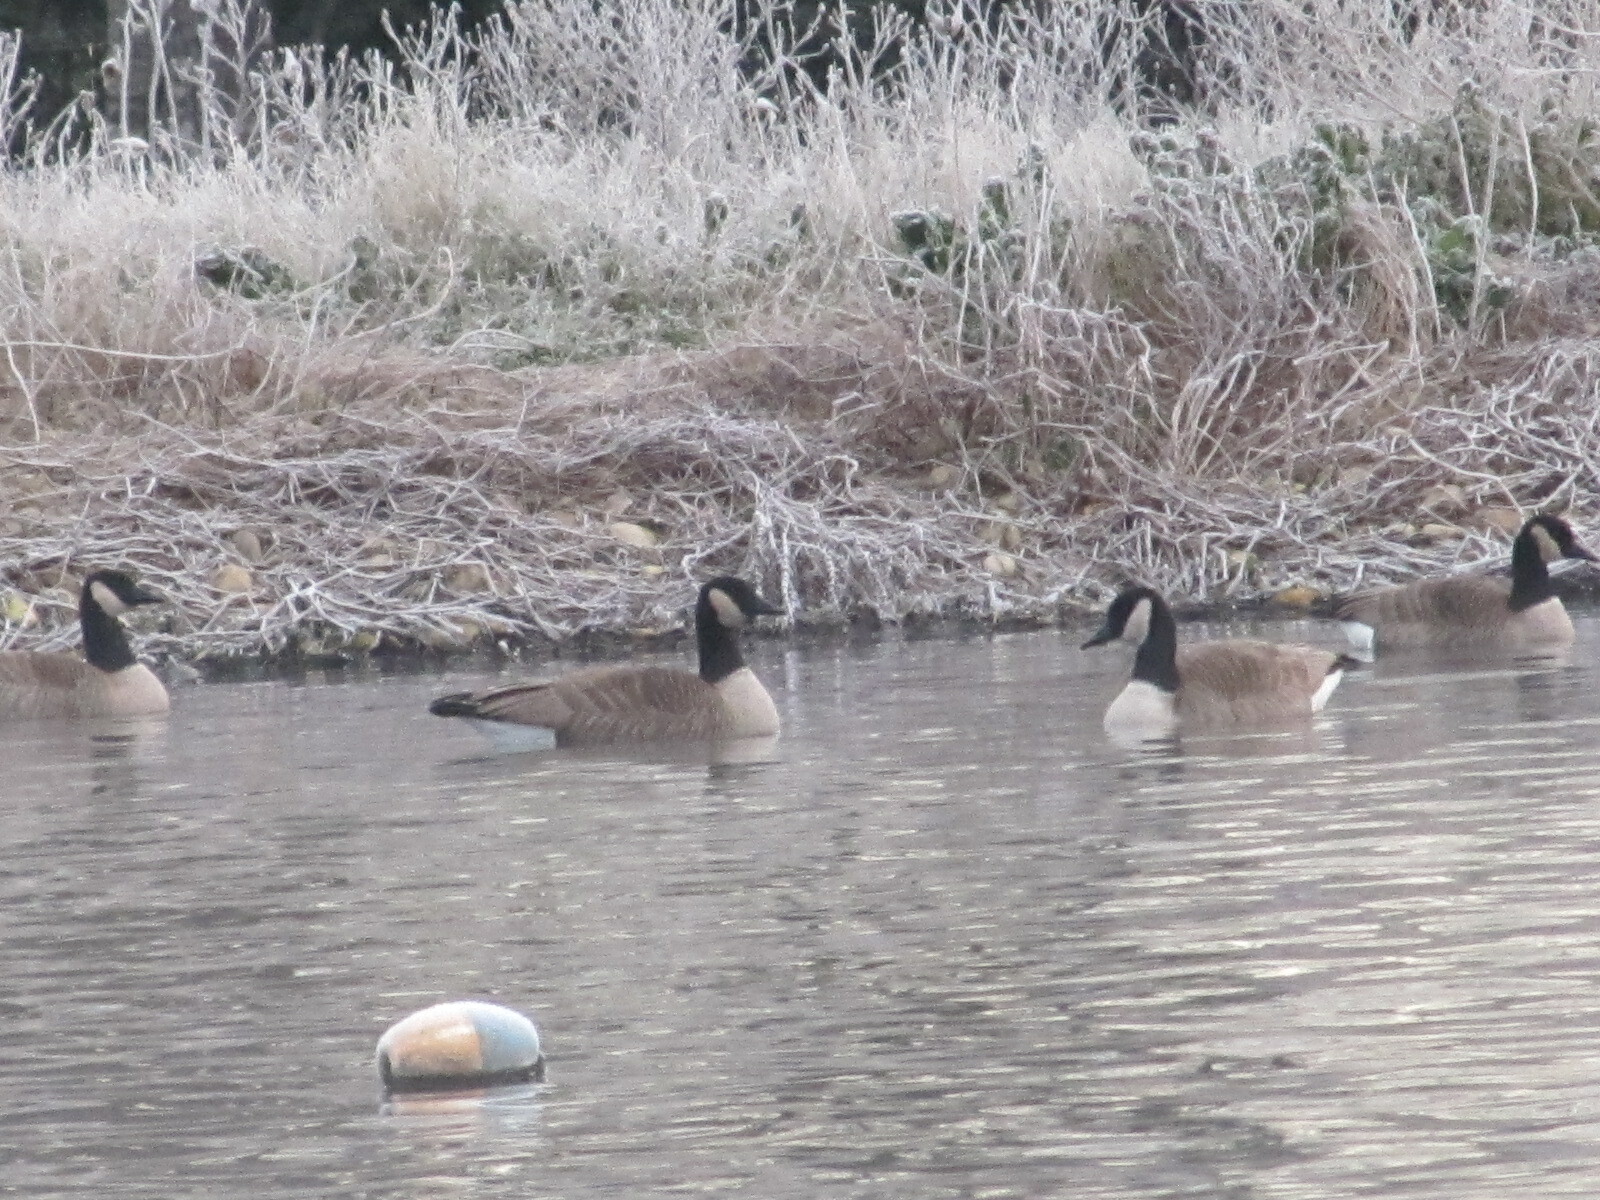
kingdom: Animalia
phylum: Chordata
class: Aves
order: Anseriformes
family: Anatidae
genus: Branta
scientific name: Branta hutchinsii
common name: Cackling goose
